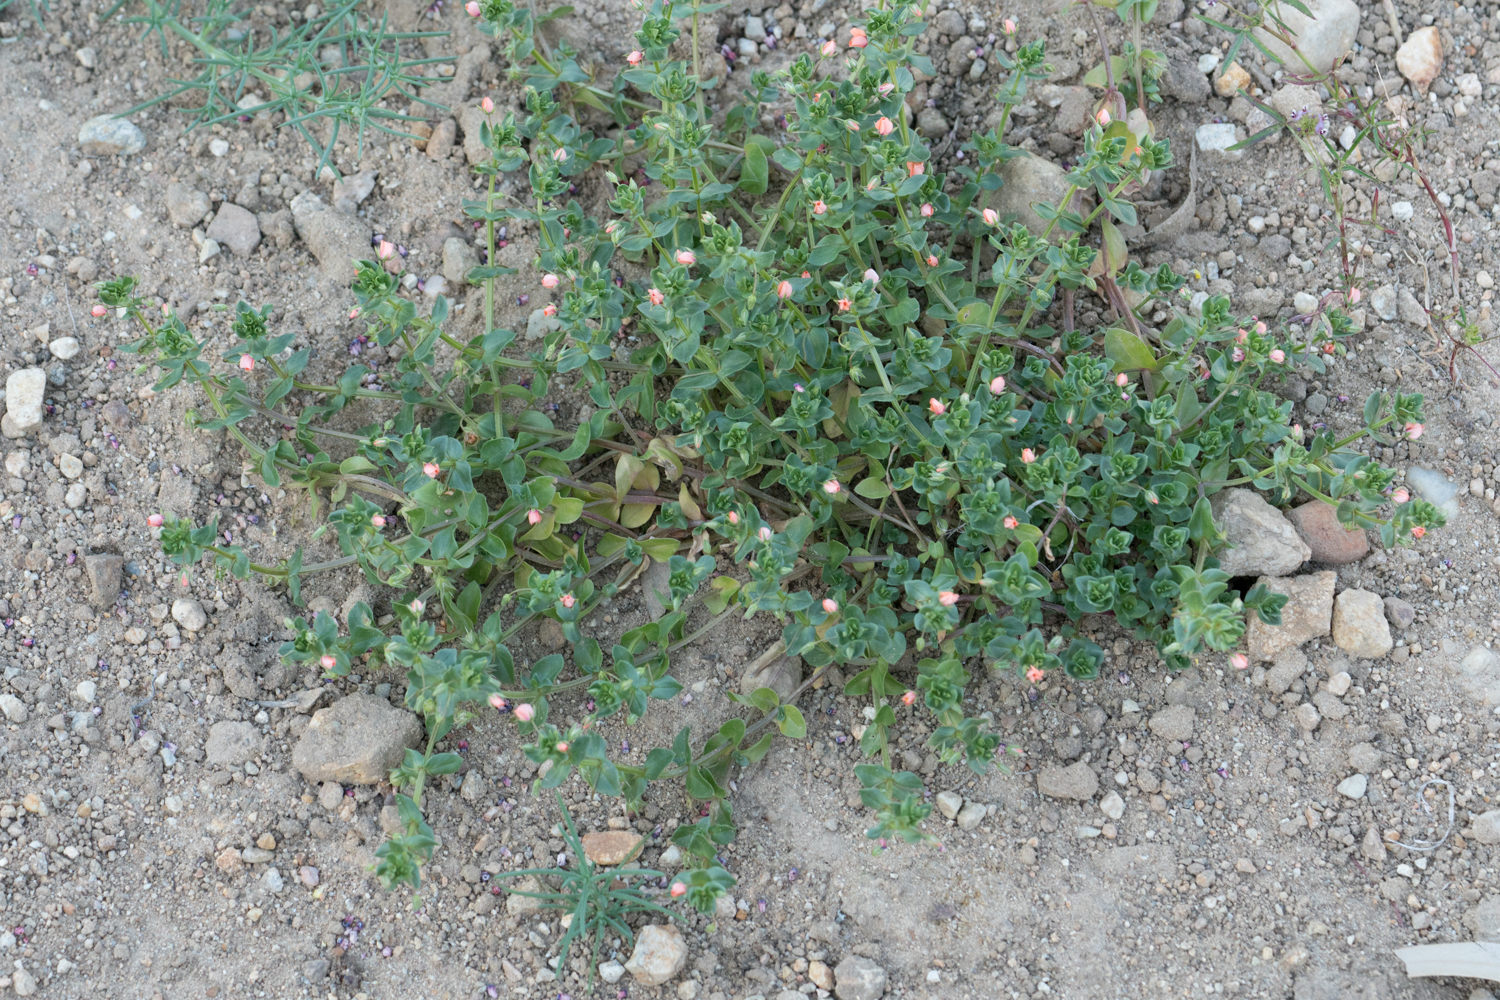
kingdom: Plantae
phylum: Tracheophyta
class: Magnoliopsida
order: Ericales
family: Primulaceae
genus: Lysimachia
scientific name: Lysimachia arvensis
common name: Scarlet pimpernel
